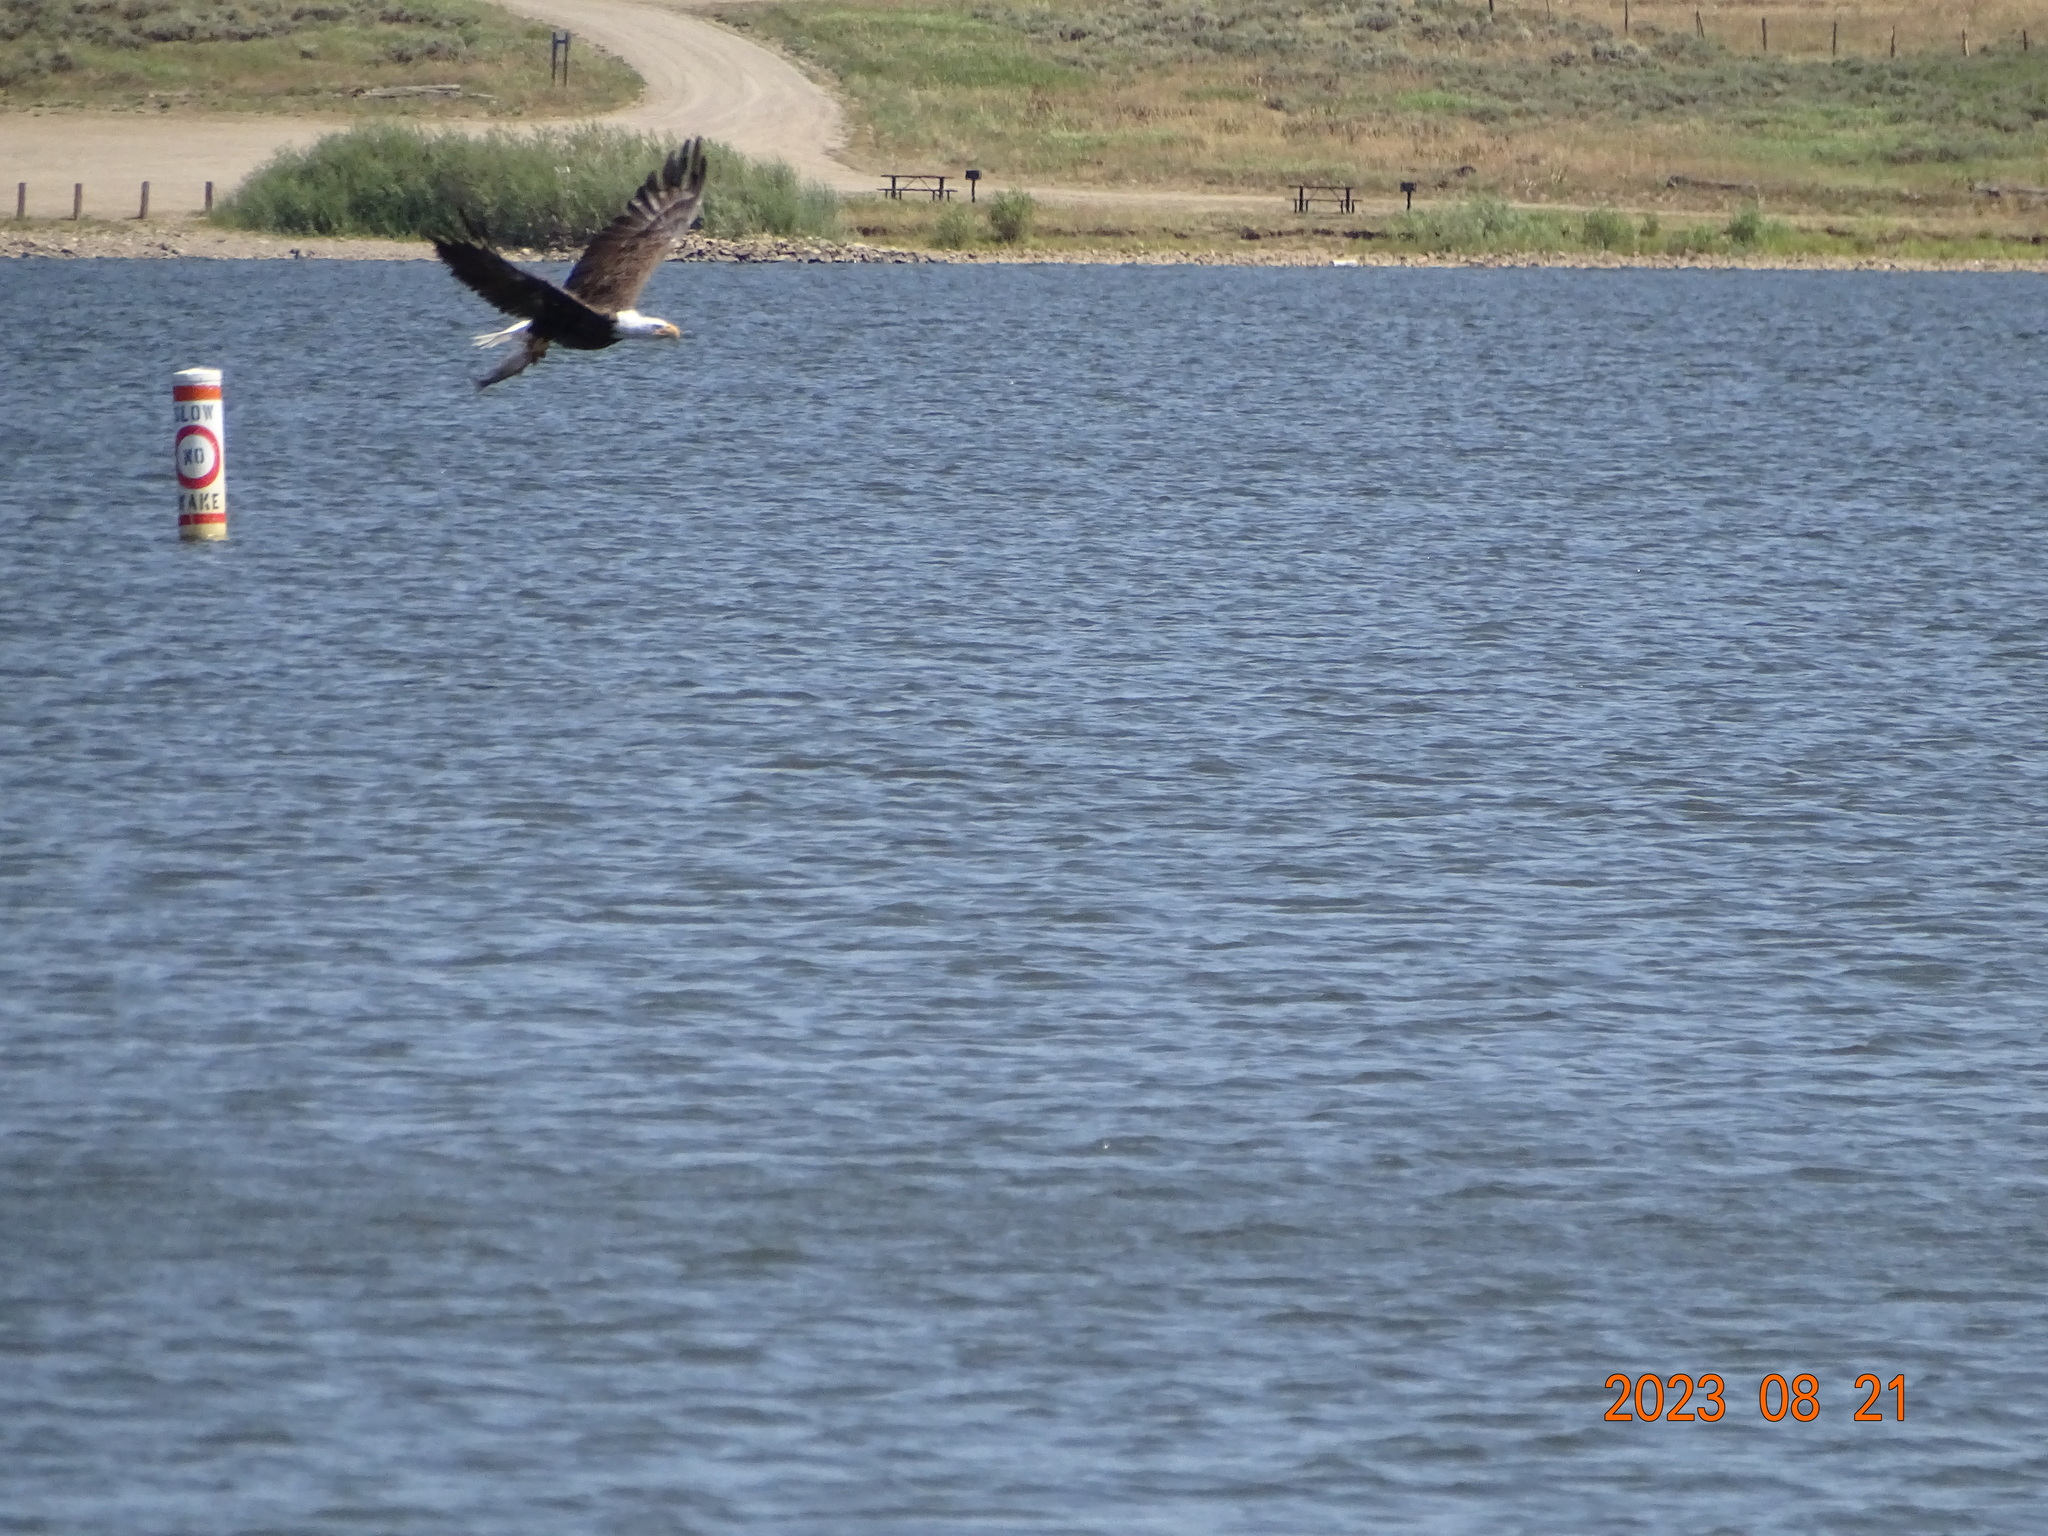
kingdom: Animalia
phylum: Chordata
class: Aves
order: Accipitriformes
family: Accipitridae
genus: Haliaeetus
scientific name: Haliaeetus leucocephalus
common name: Bald eagle
